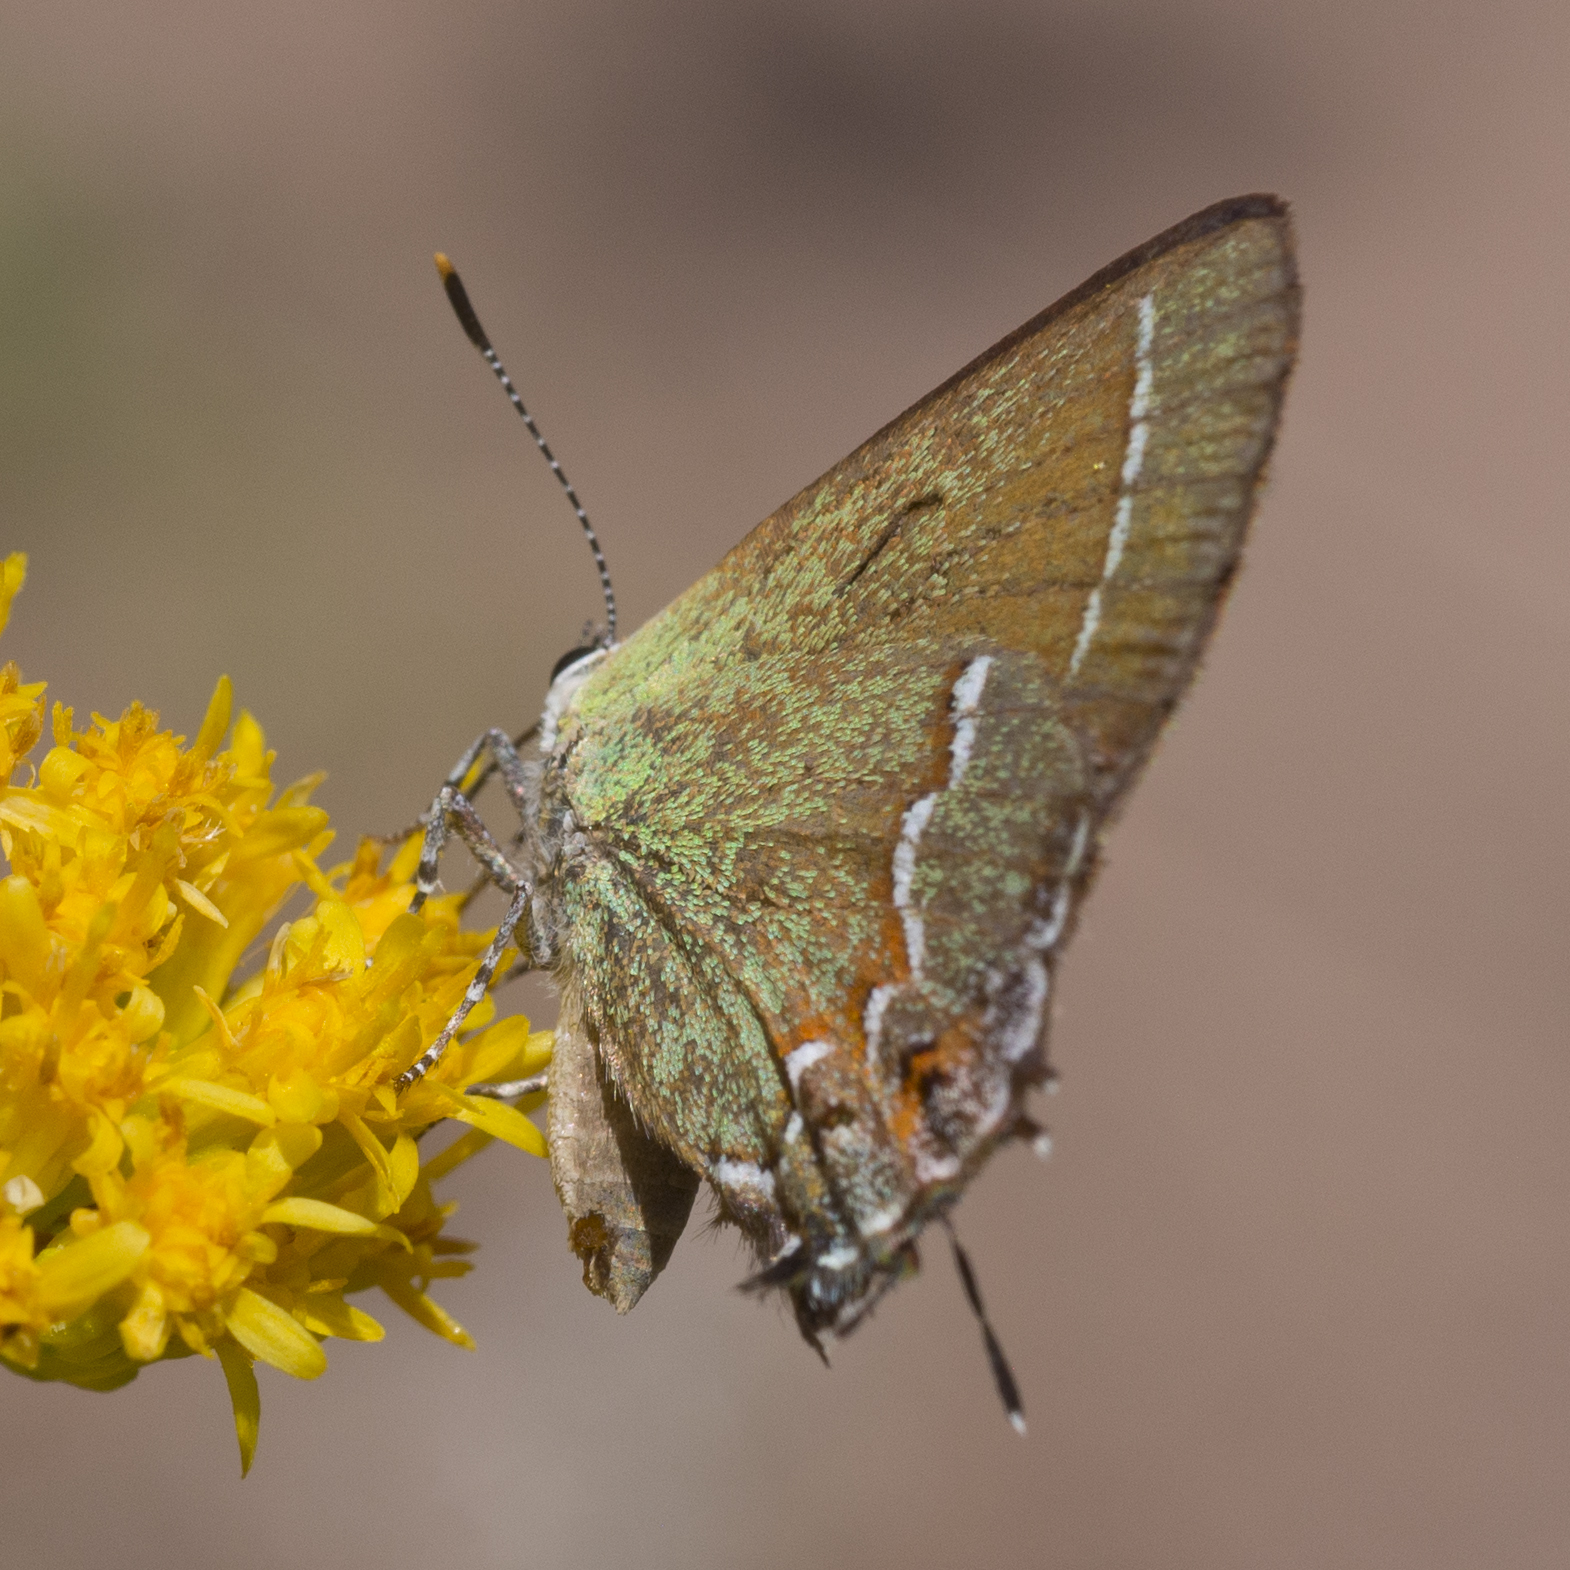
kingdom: Animalia
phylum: Arthropoda
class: Insecta
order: Lepidoptera
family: Lycaenidae
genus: Mitoura
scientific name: Mitoura siva
